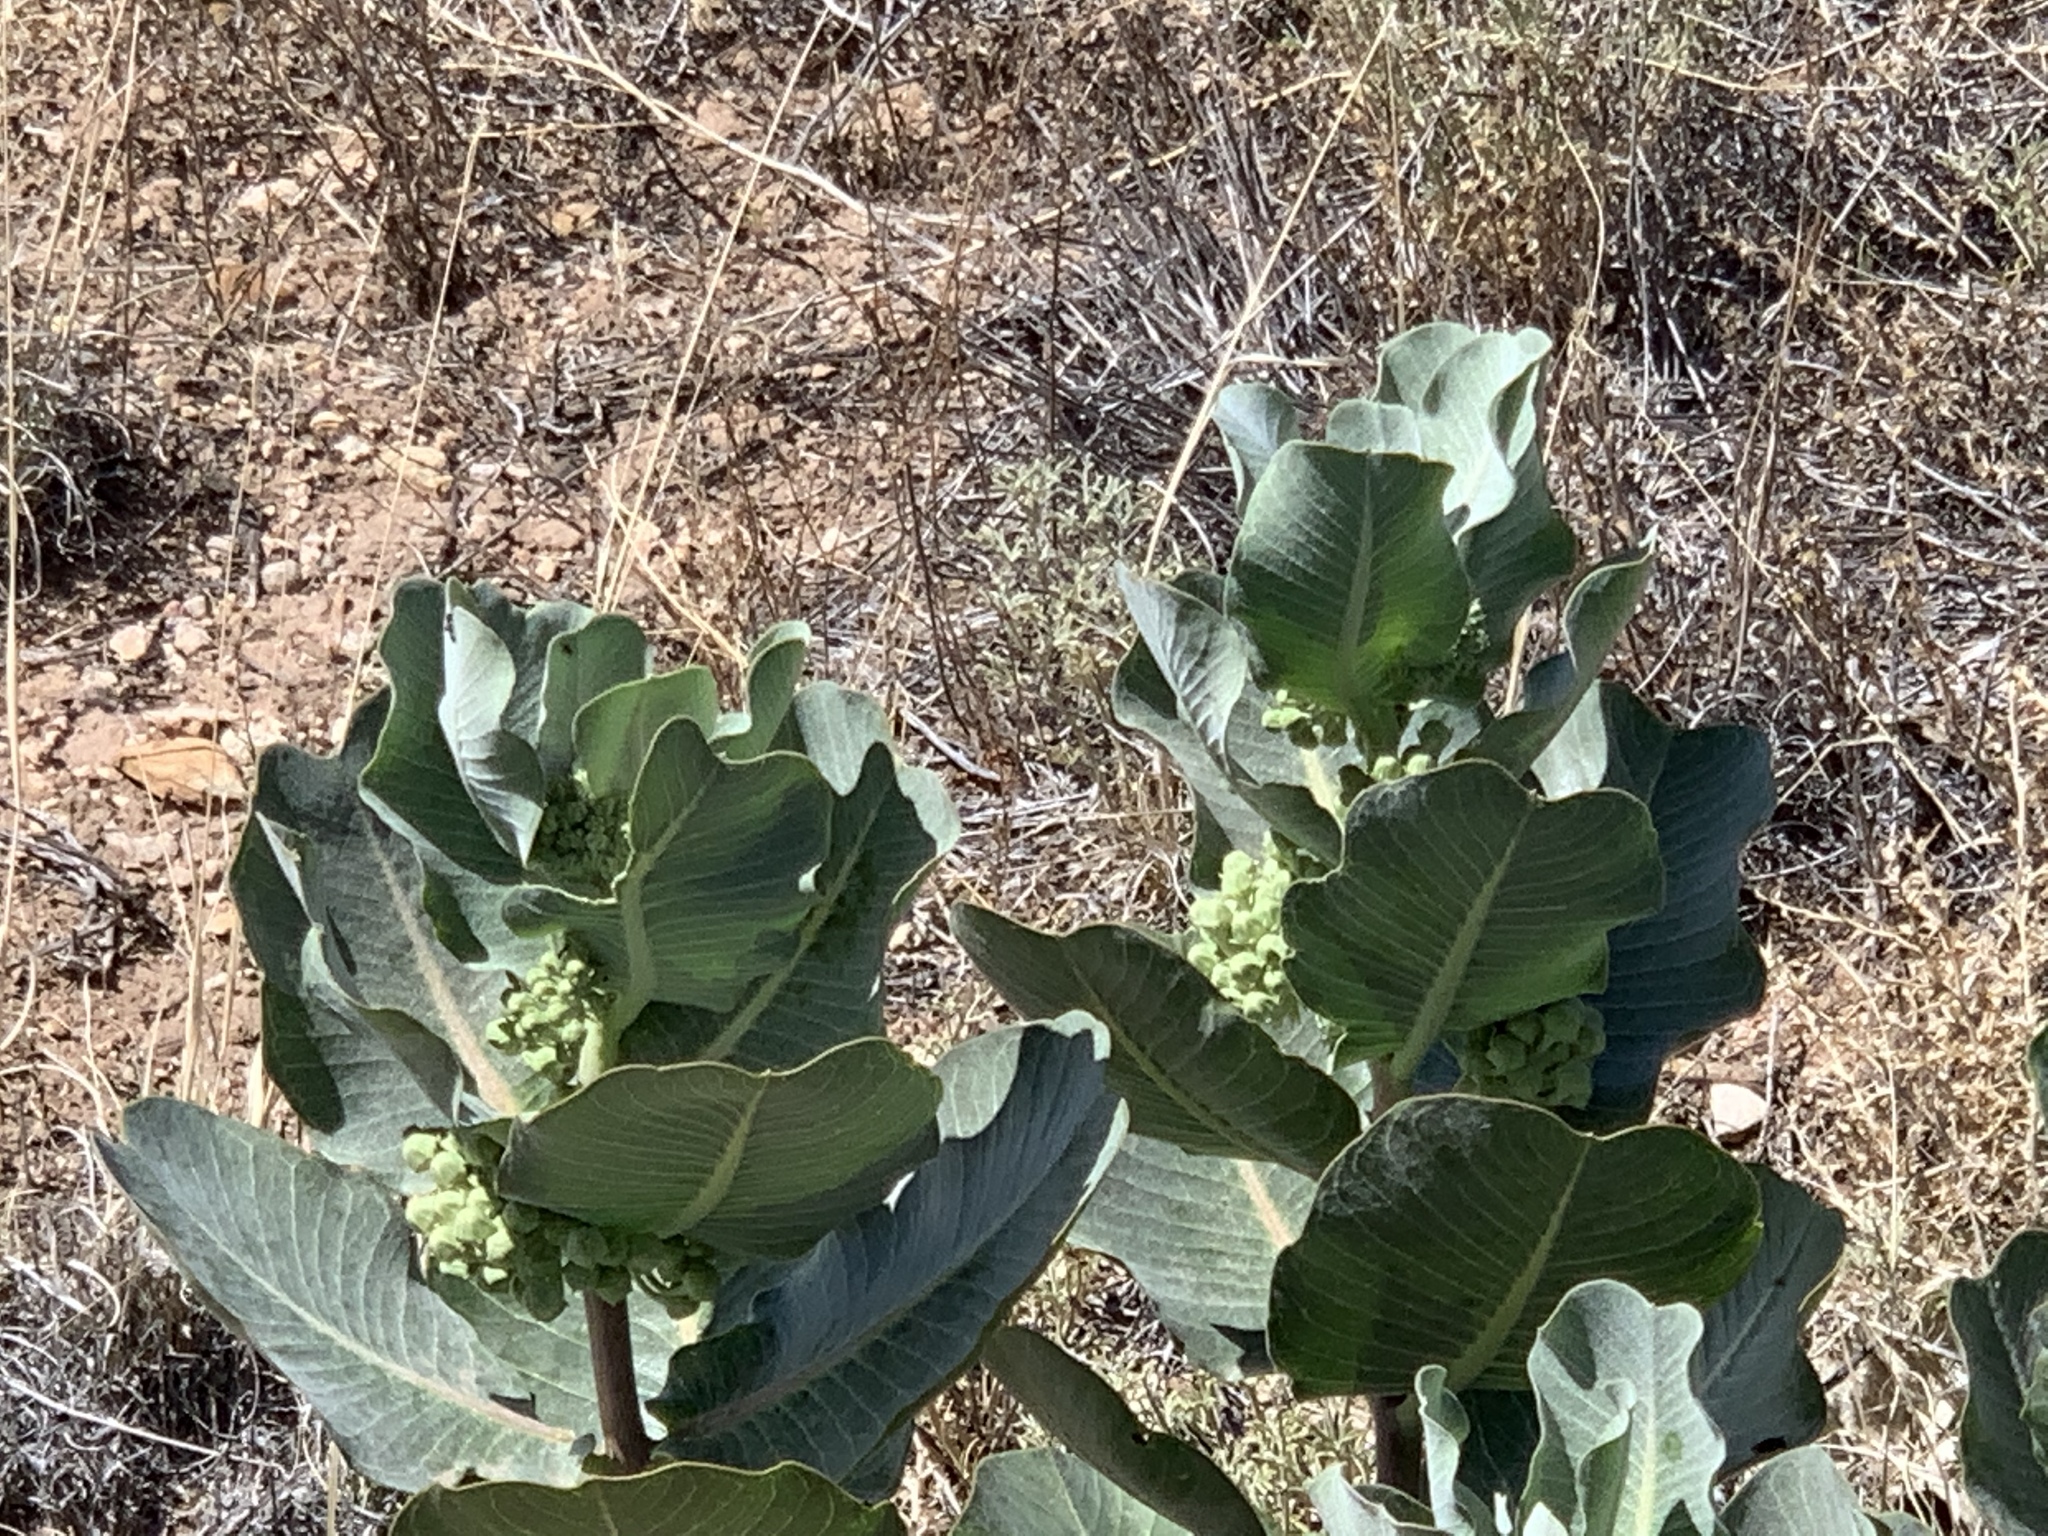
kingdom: Plantae
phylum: Tracheophyta
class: Magnoliopsida
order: Gentianales
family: Apocynaceae
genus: Asclepias
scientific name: Asclepias latifolia
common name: Broadleaf milkweed
